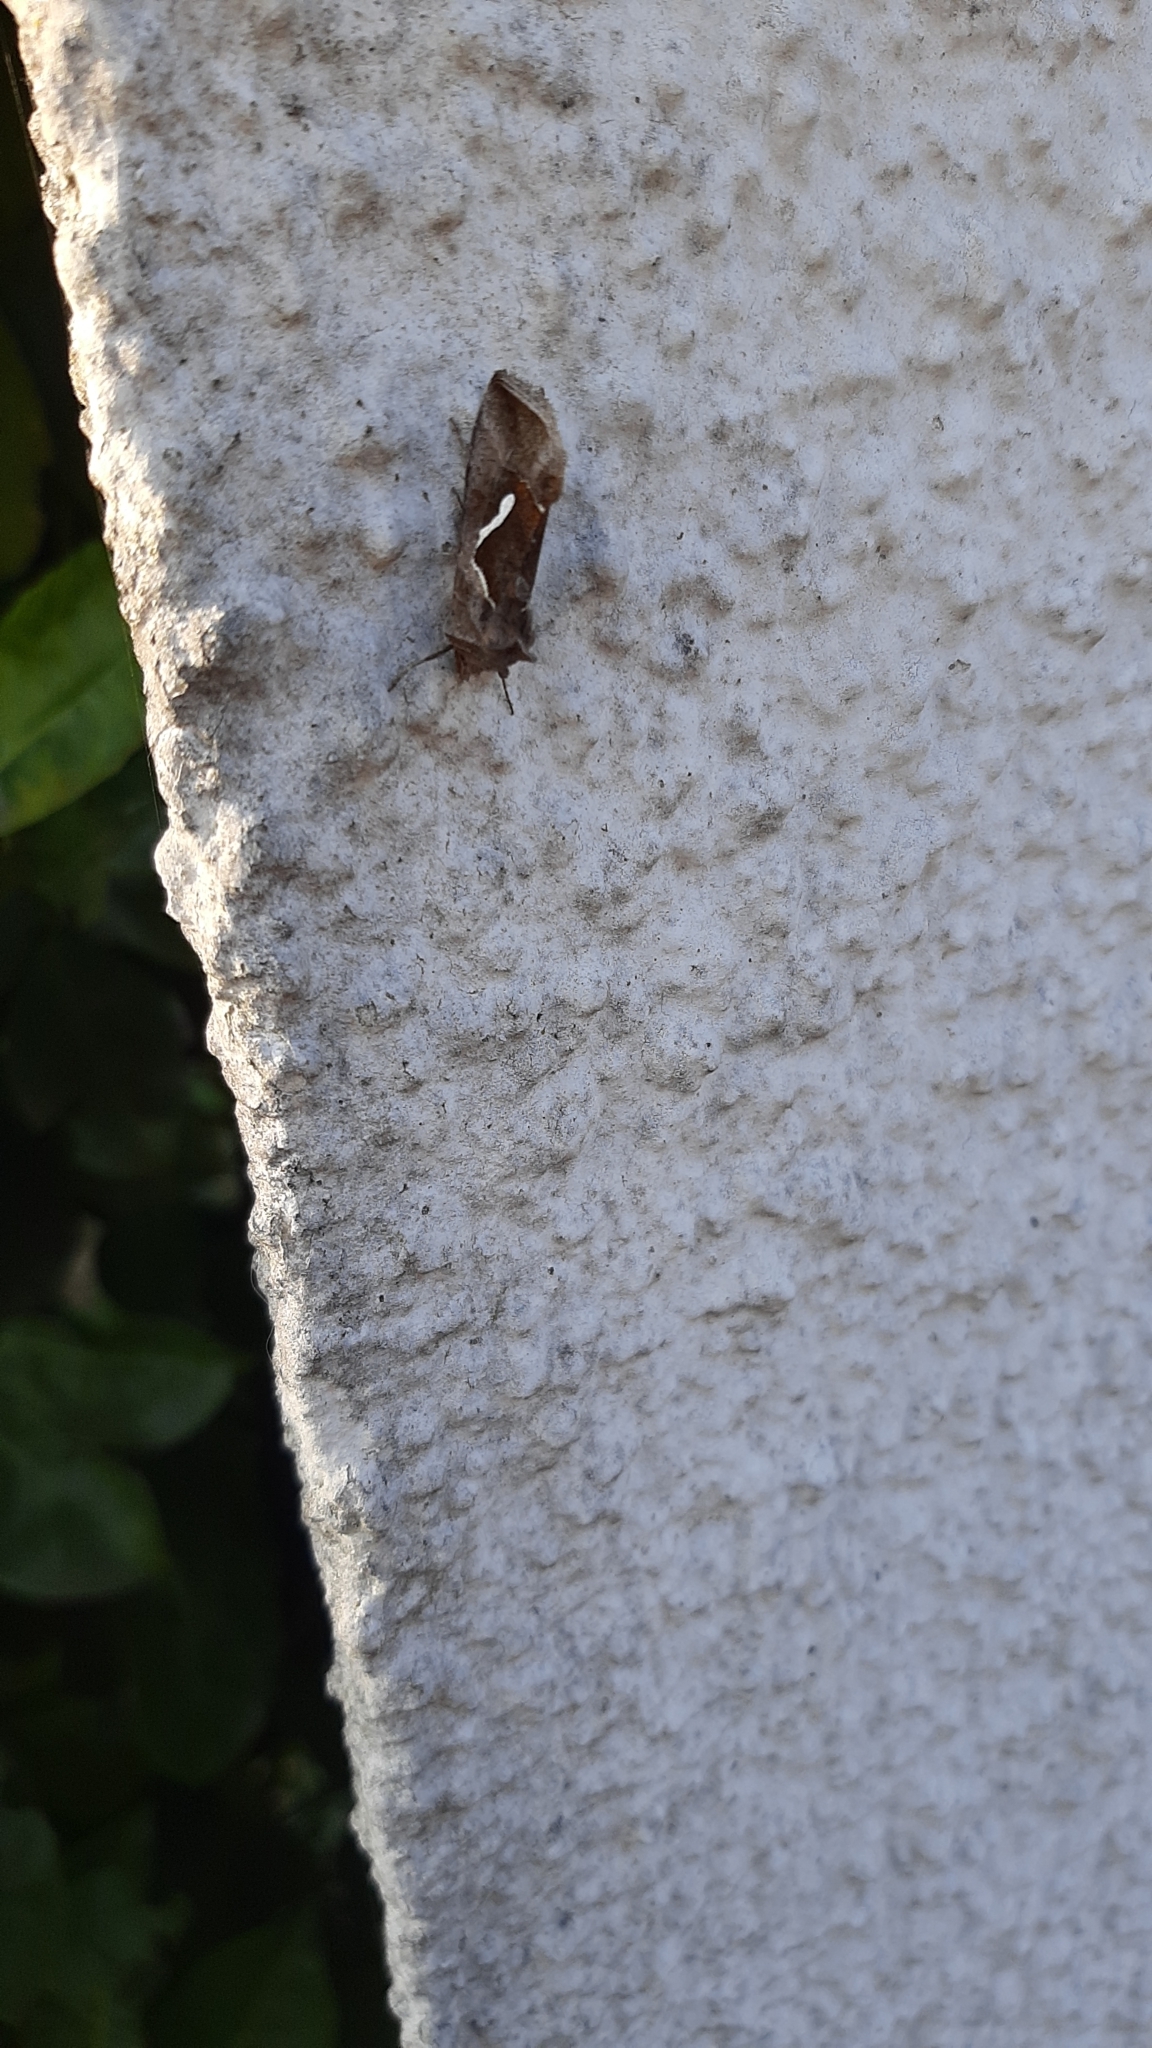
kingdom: Animalia
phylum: Arthropoda
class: Insecta
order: Lepidoptera
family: Noctuidae
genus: Macdunnoughia
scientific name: Macdunnoughia confusa
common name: Dewick's plusia
